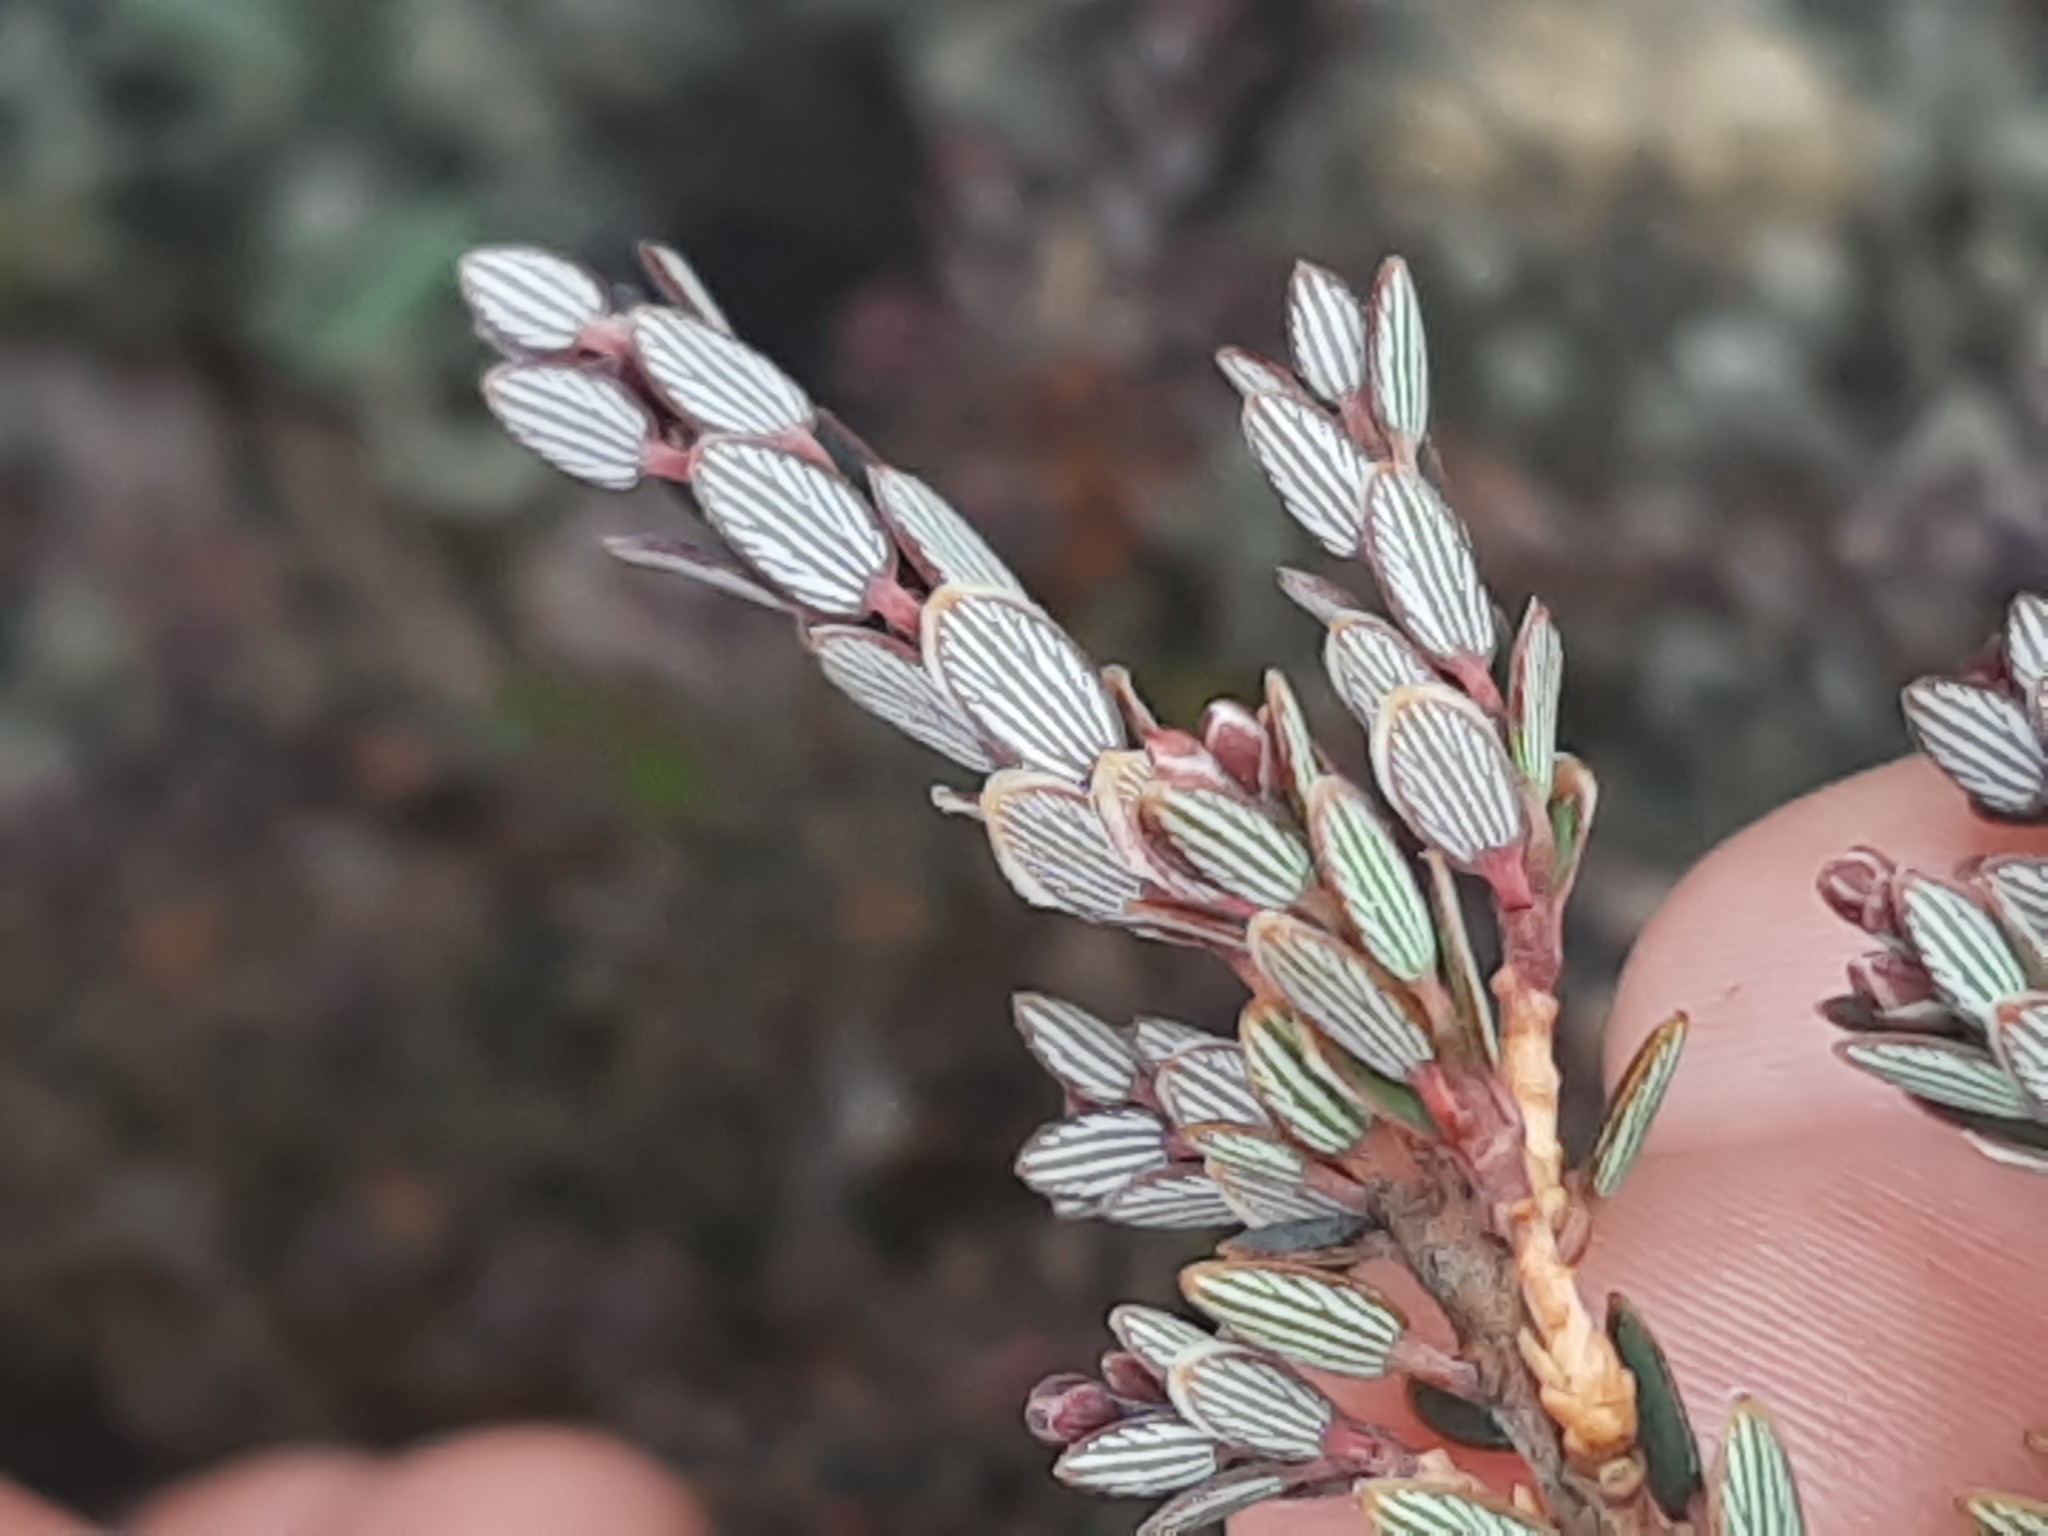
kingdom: Plantae
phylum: Tracheophyta
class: Magnoliopsida
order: Ericales
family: Ericaceae
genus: Acrothamnus
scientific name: Acrothamnus colensoi
